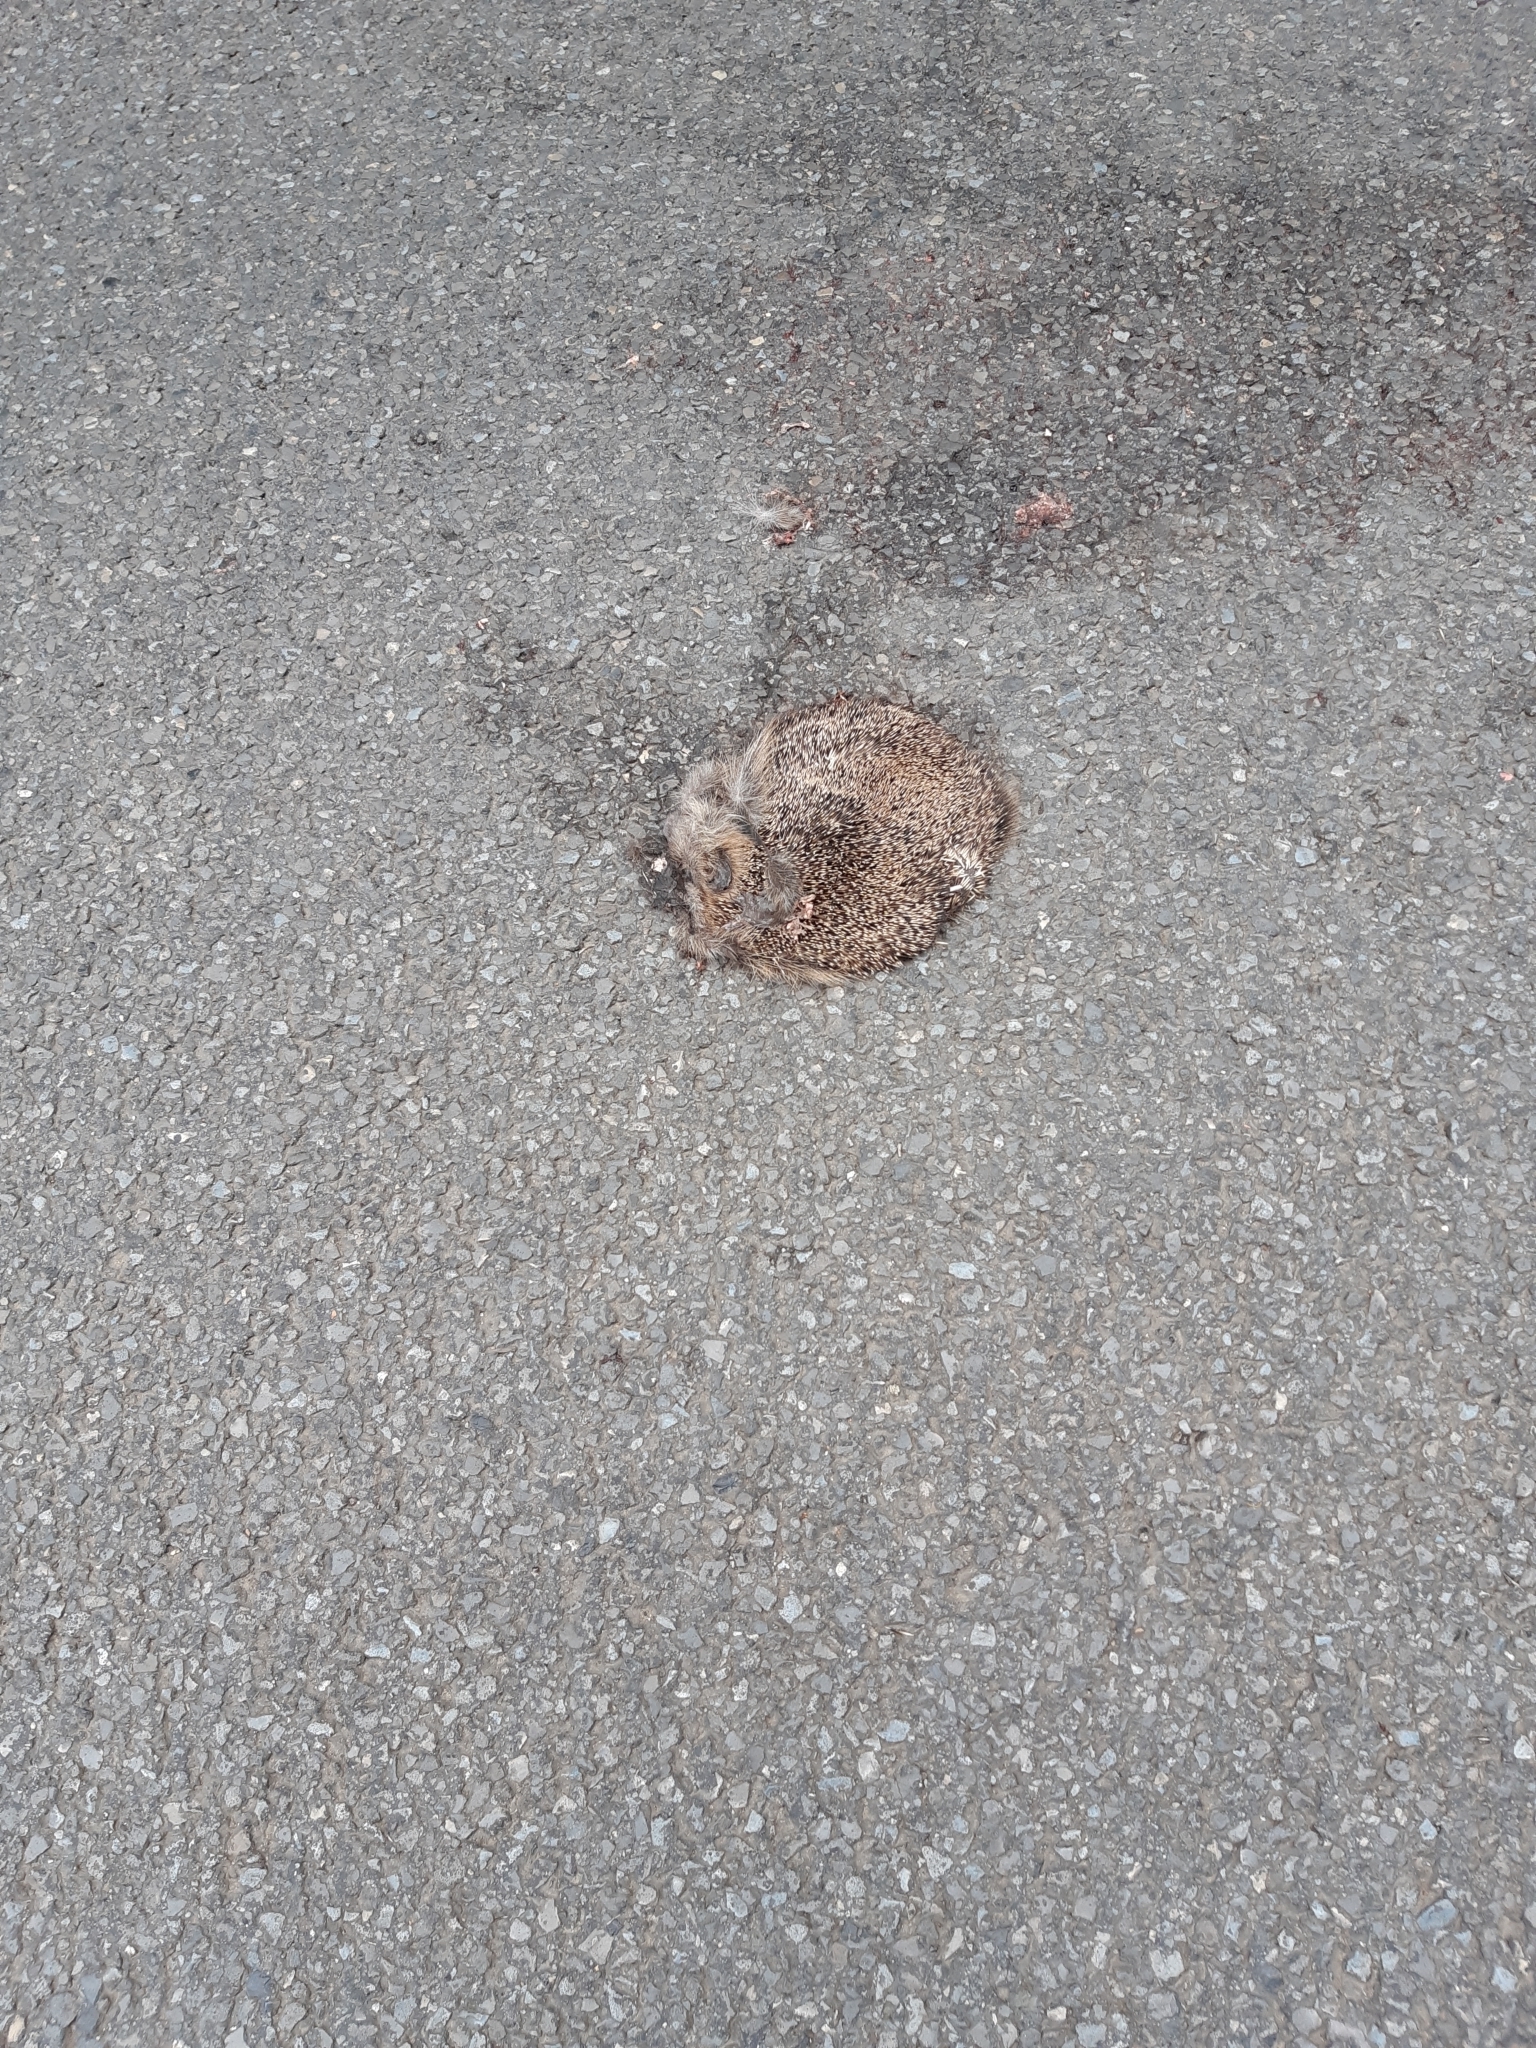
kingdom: Animalia
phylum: Chordata
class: Mammalia
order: Erinaceomorpha
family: Erinaceidae
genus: Erinaceus
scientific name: Erinaceus europaeus
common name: West european hedgehog
